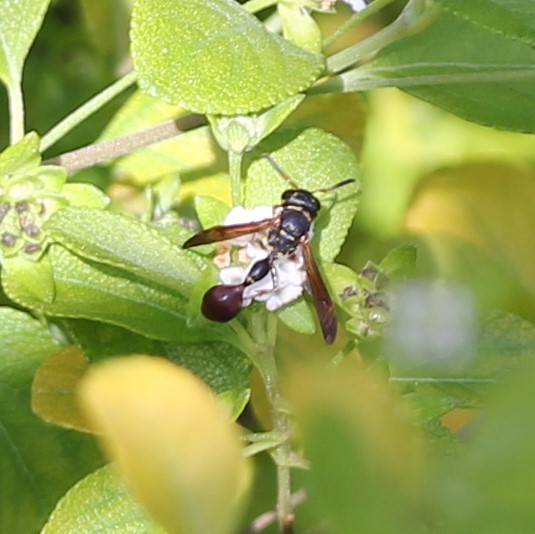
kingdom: Animalia
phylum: Arthropoda
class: Insecta
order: Hymenoptera
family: Eumenidae
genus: Zethus
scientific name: Zethus slossonae
